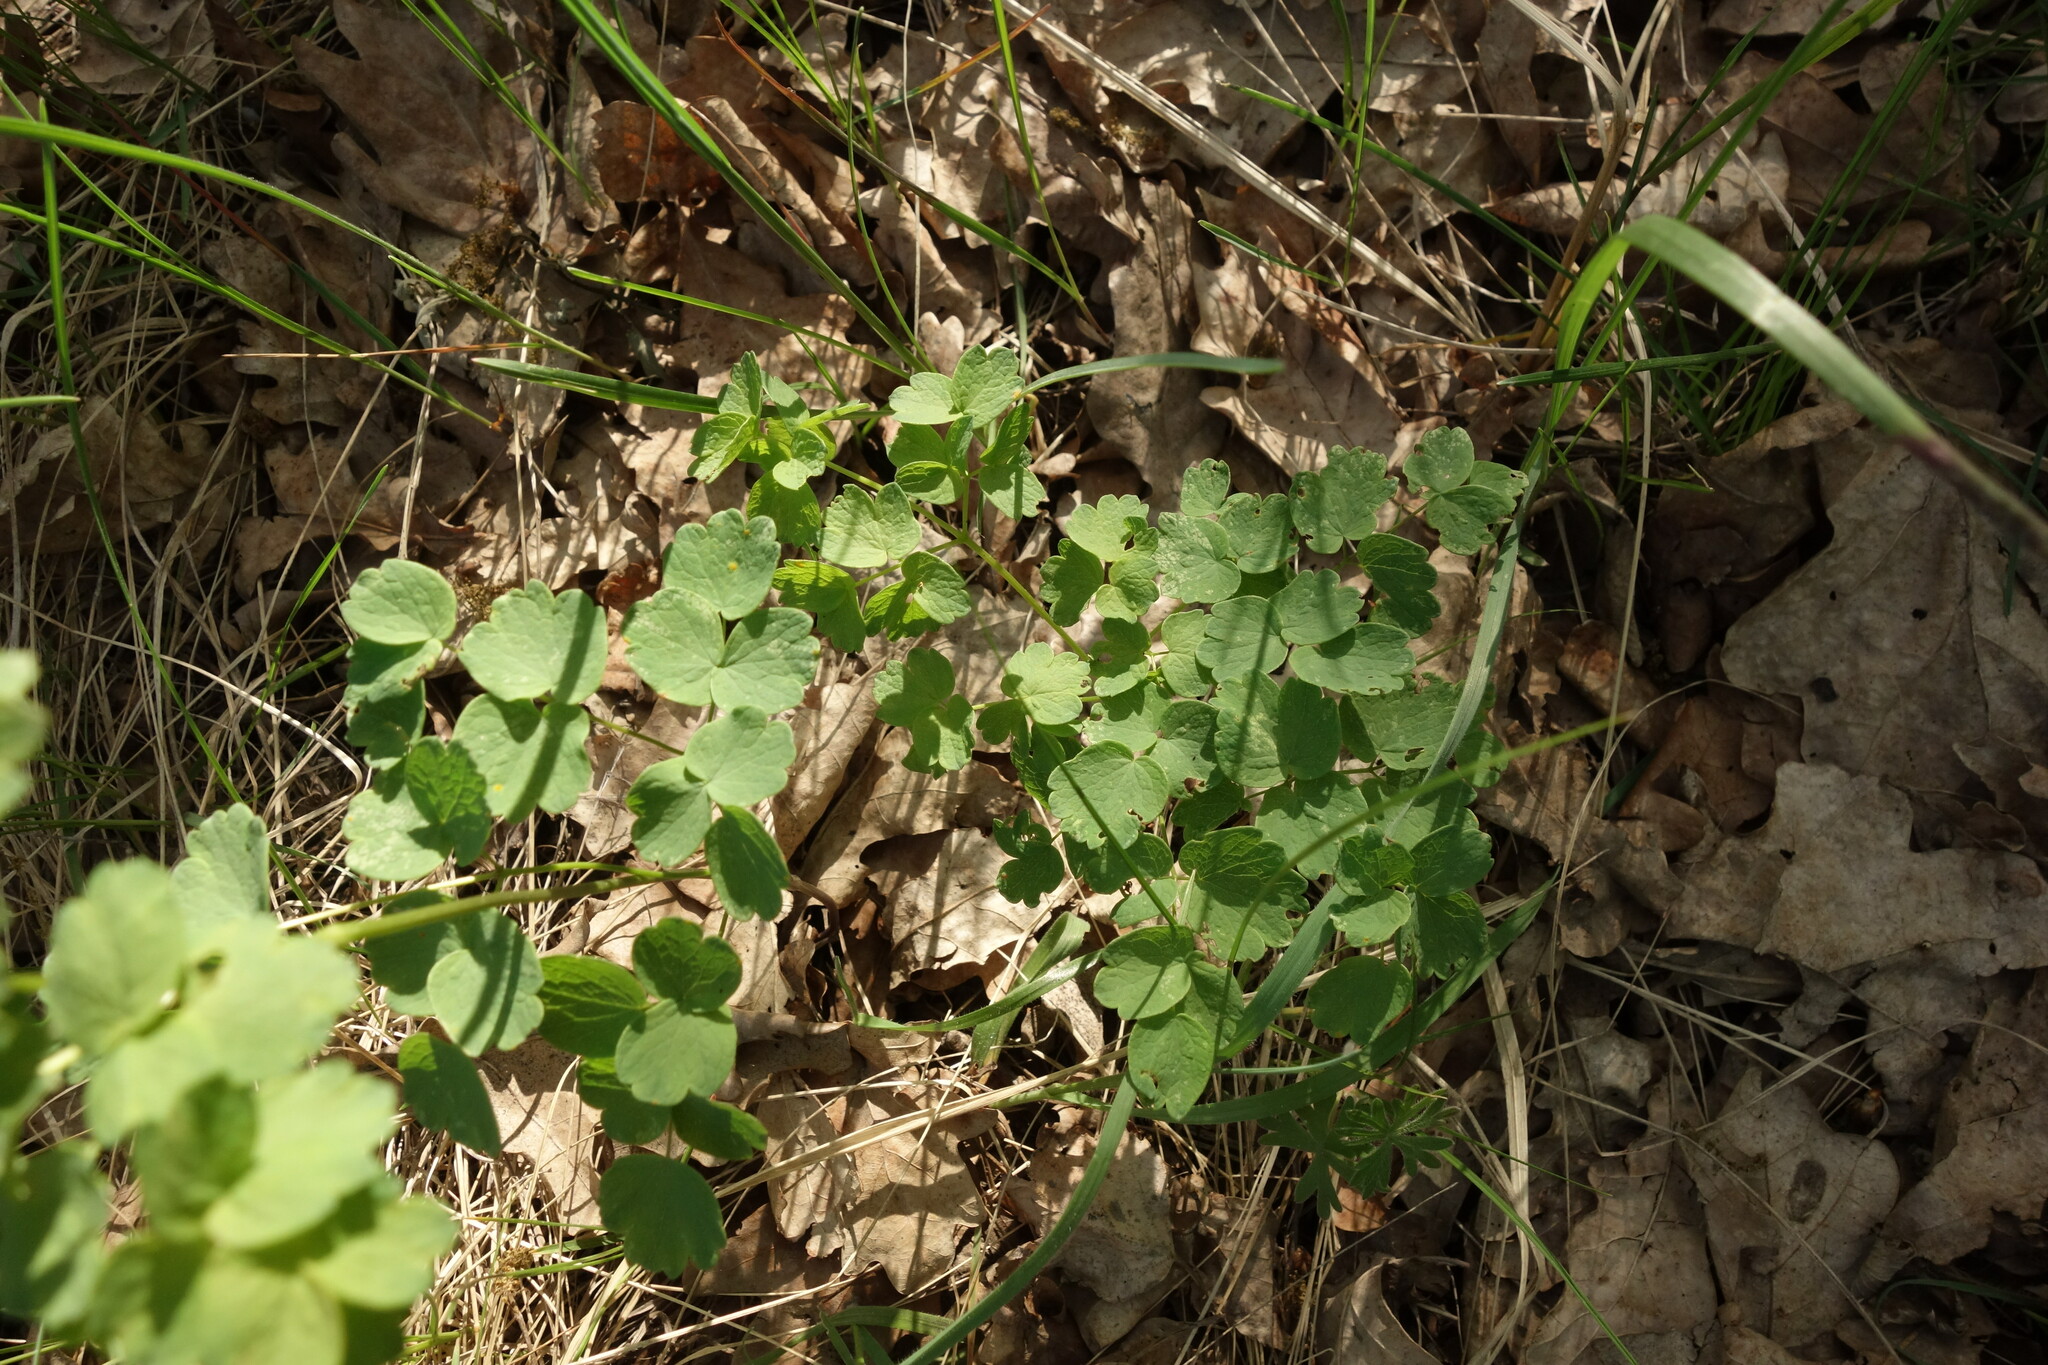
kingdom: Plantae
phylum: Tracheophyta
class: Magnoliopsida
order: Ranunculales
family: Ranunculaceae
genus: Thalictrum
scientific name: Thalictrum minus
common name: Lesser meadow-rue
